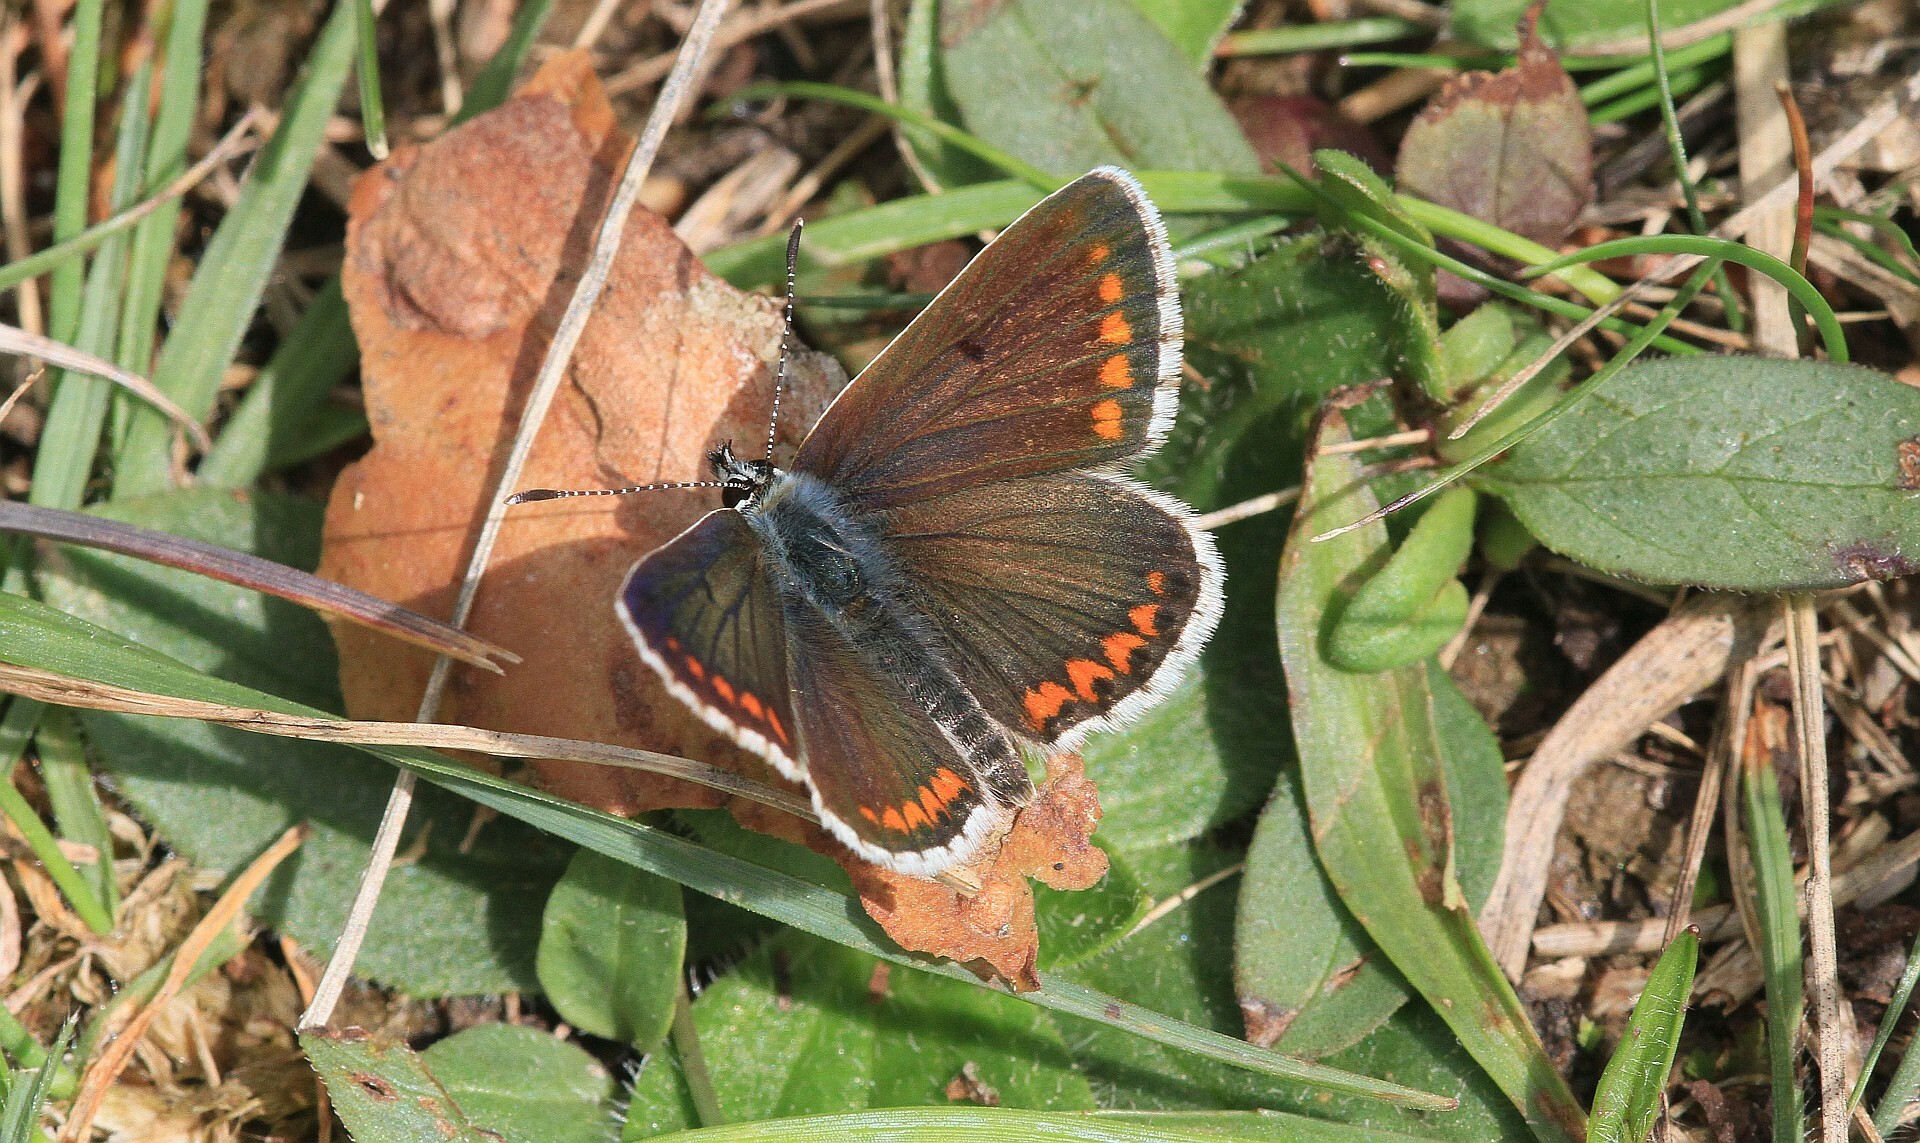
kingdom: Animalia
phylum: Arthropoda
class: Insecta
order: Lepidoptera
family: Lycaenidae
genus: Aricia
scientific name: Aricia agestis
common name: Brown argus
